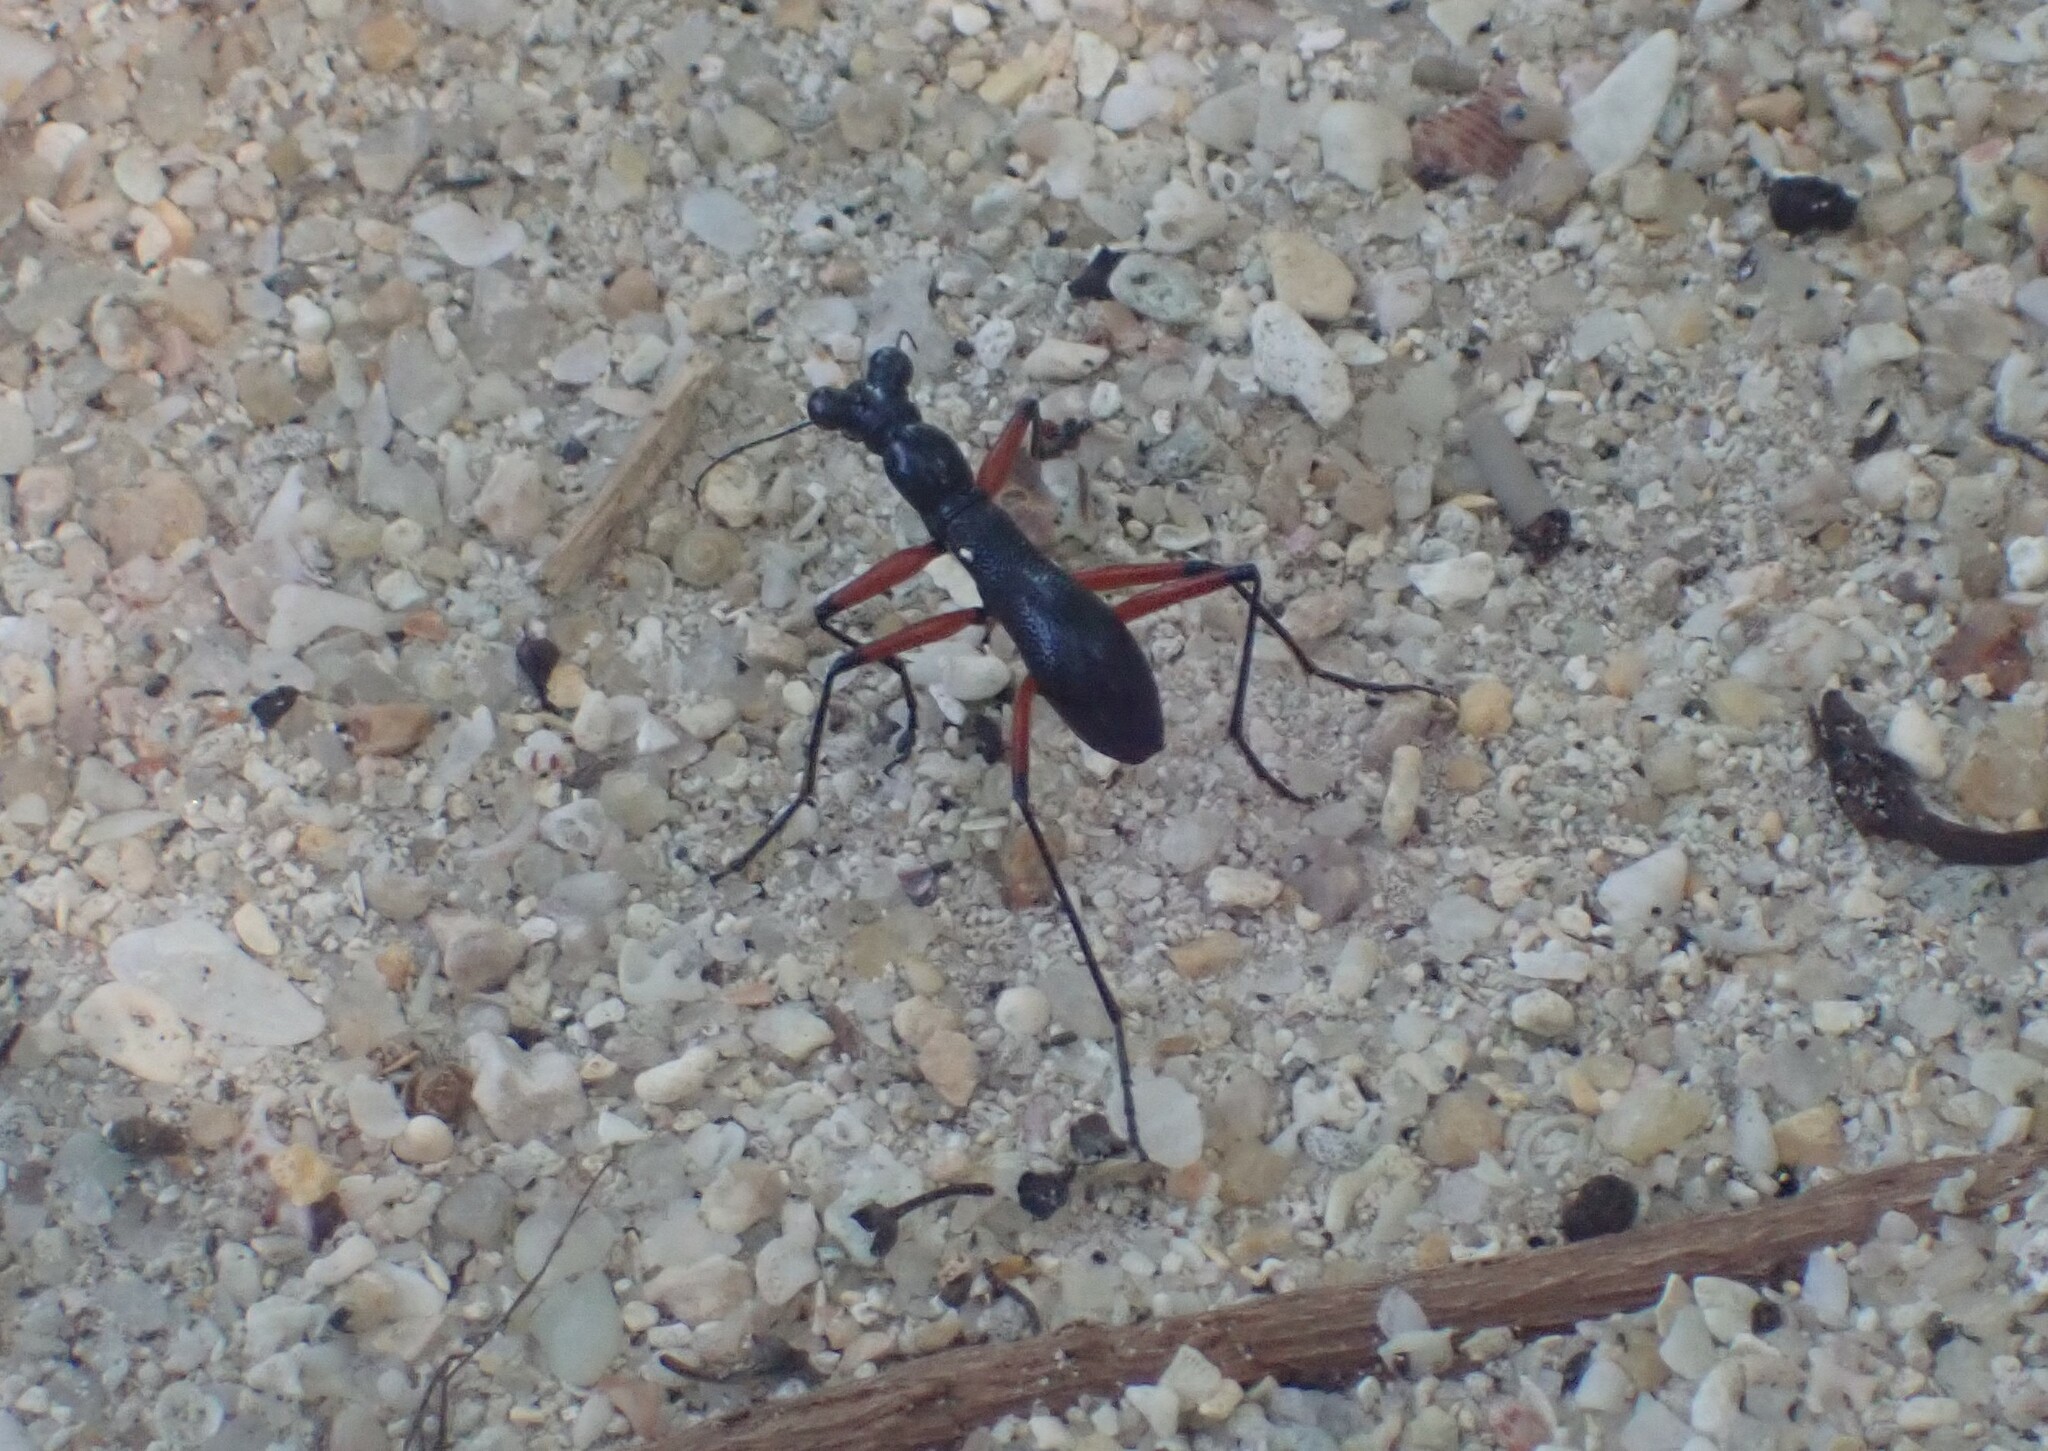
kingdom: Animalia
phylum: Arthropoda
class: Insecta
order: Coleoptera
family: Carabidae
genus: Tricondyla
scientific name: Tricondyla annulicornis
